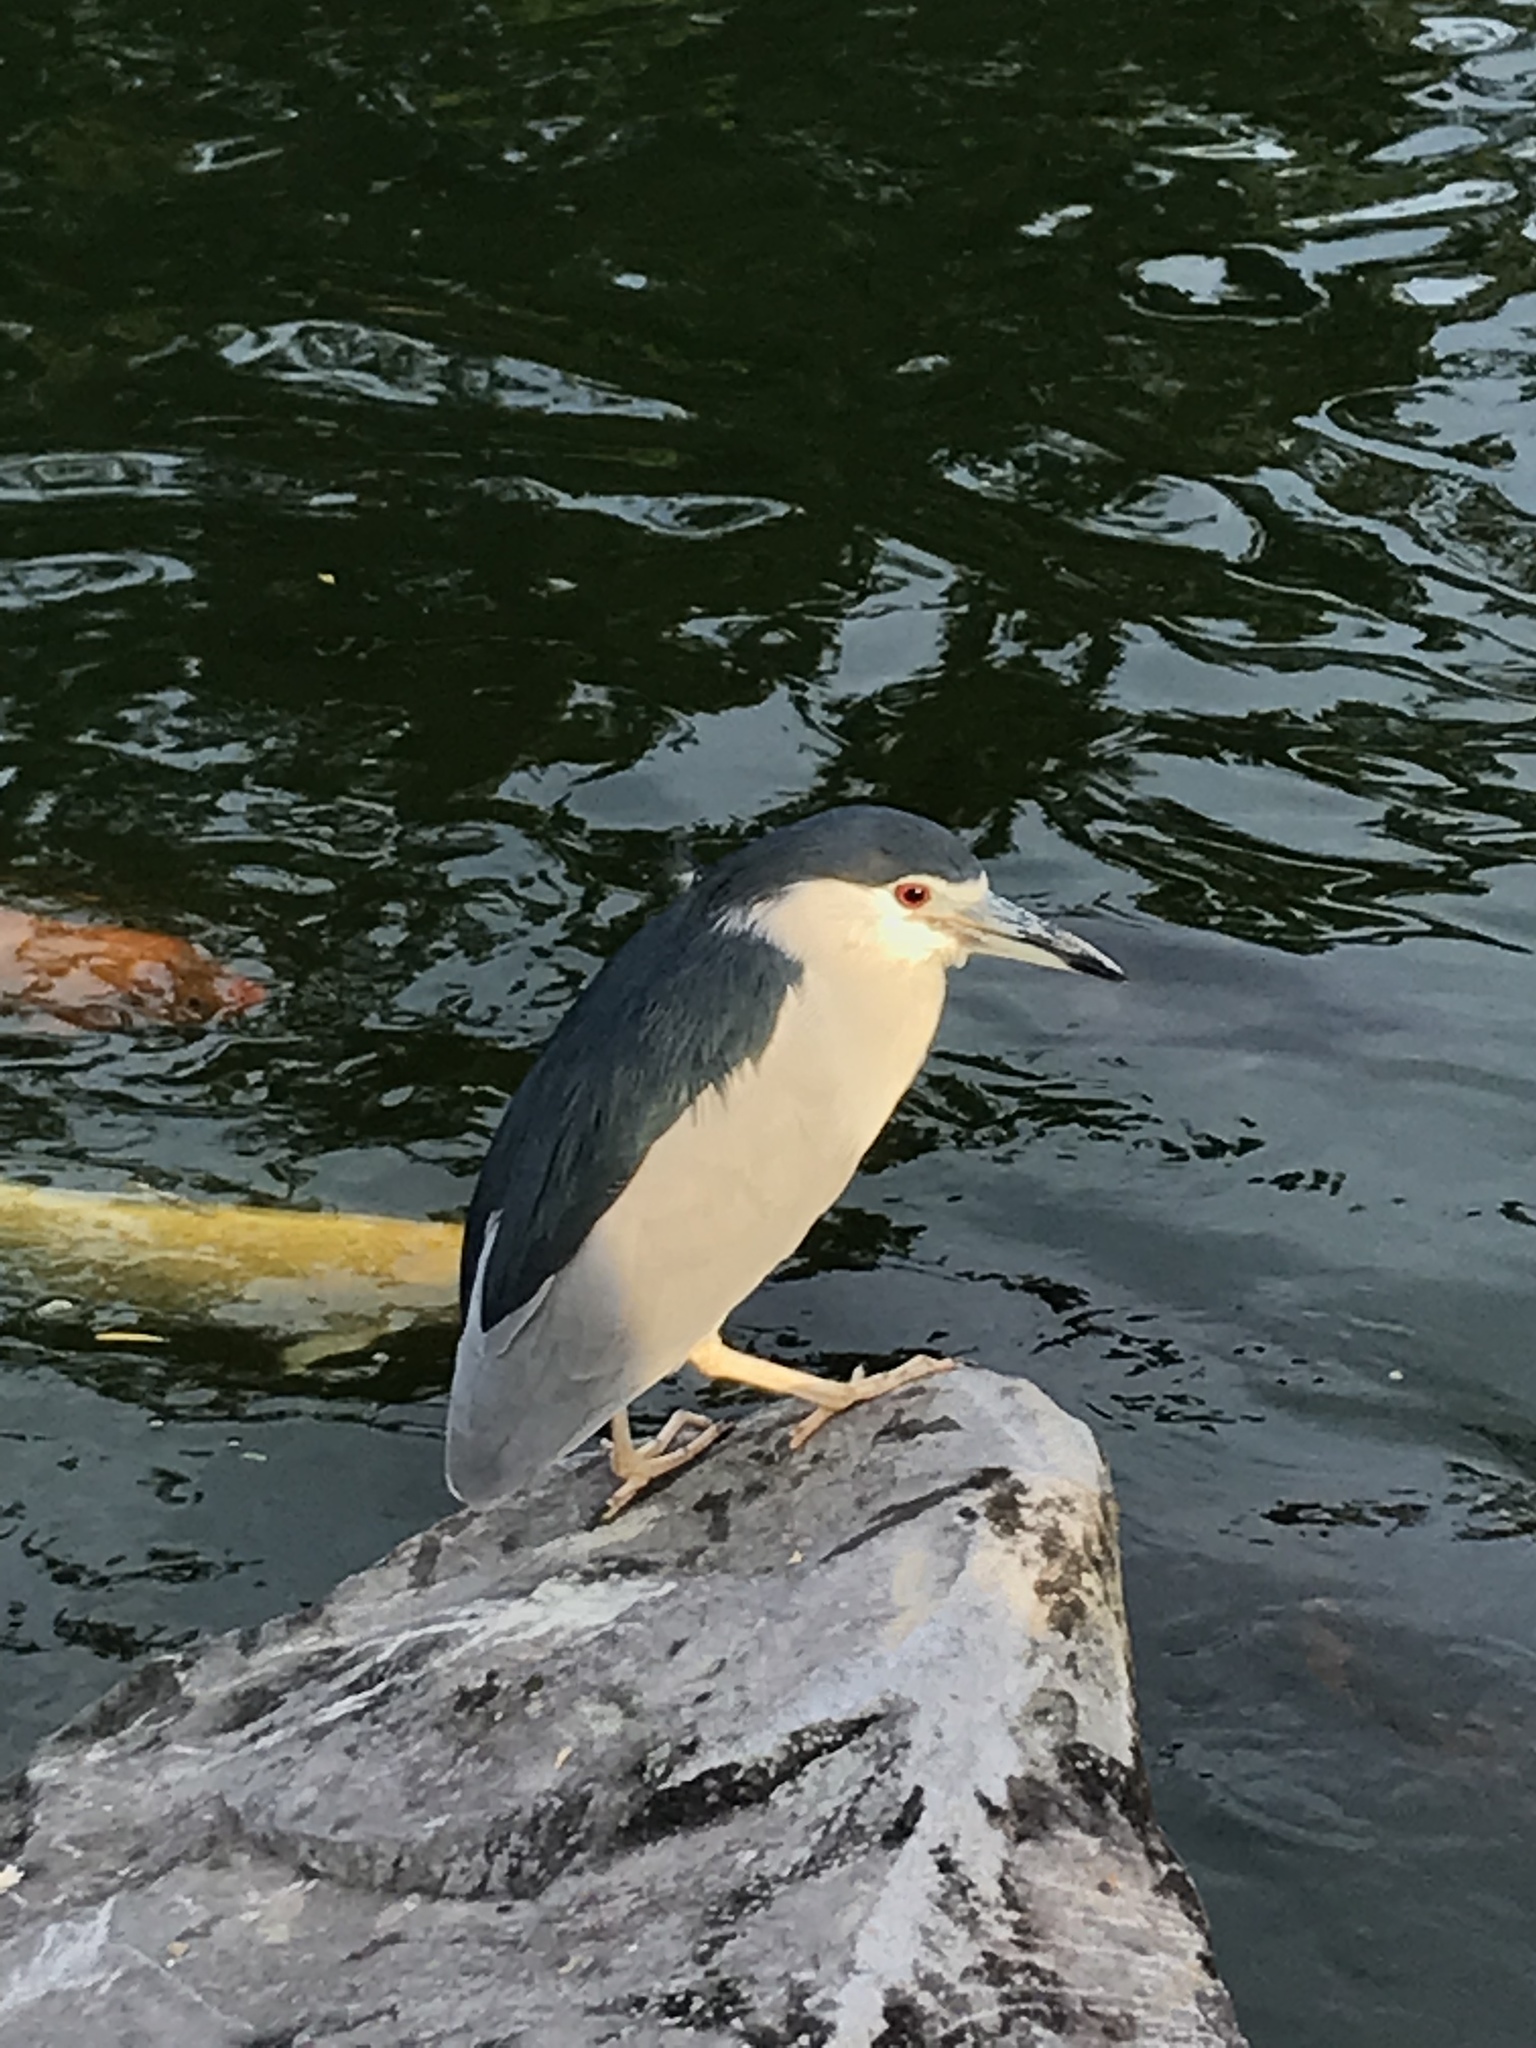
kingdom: Animalia
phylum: Chordata
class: Aves
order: Pelecaniformes
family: Ardeidae
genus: Nycticorax
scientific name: Nycticorax nycticorax
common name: Black-crowned night heron
